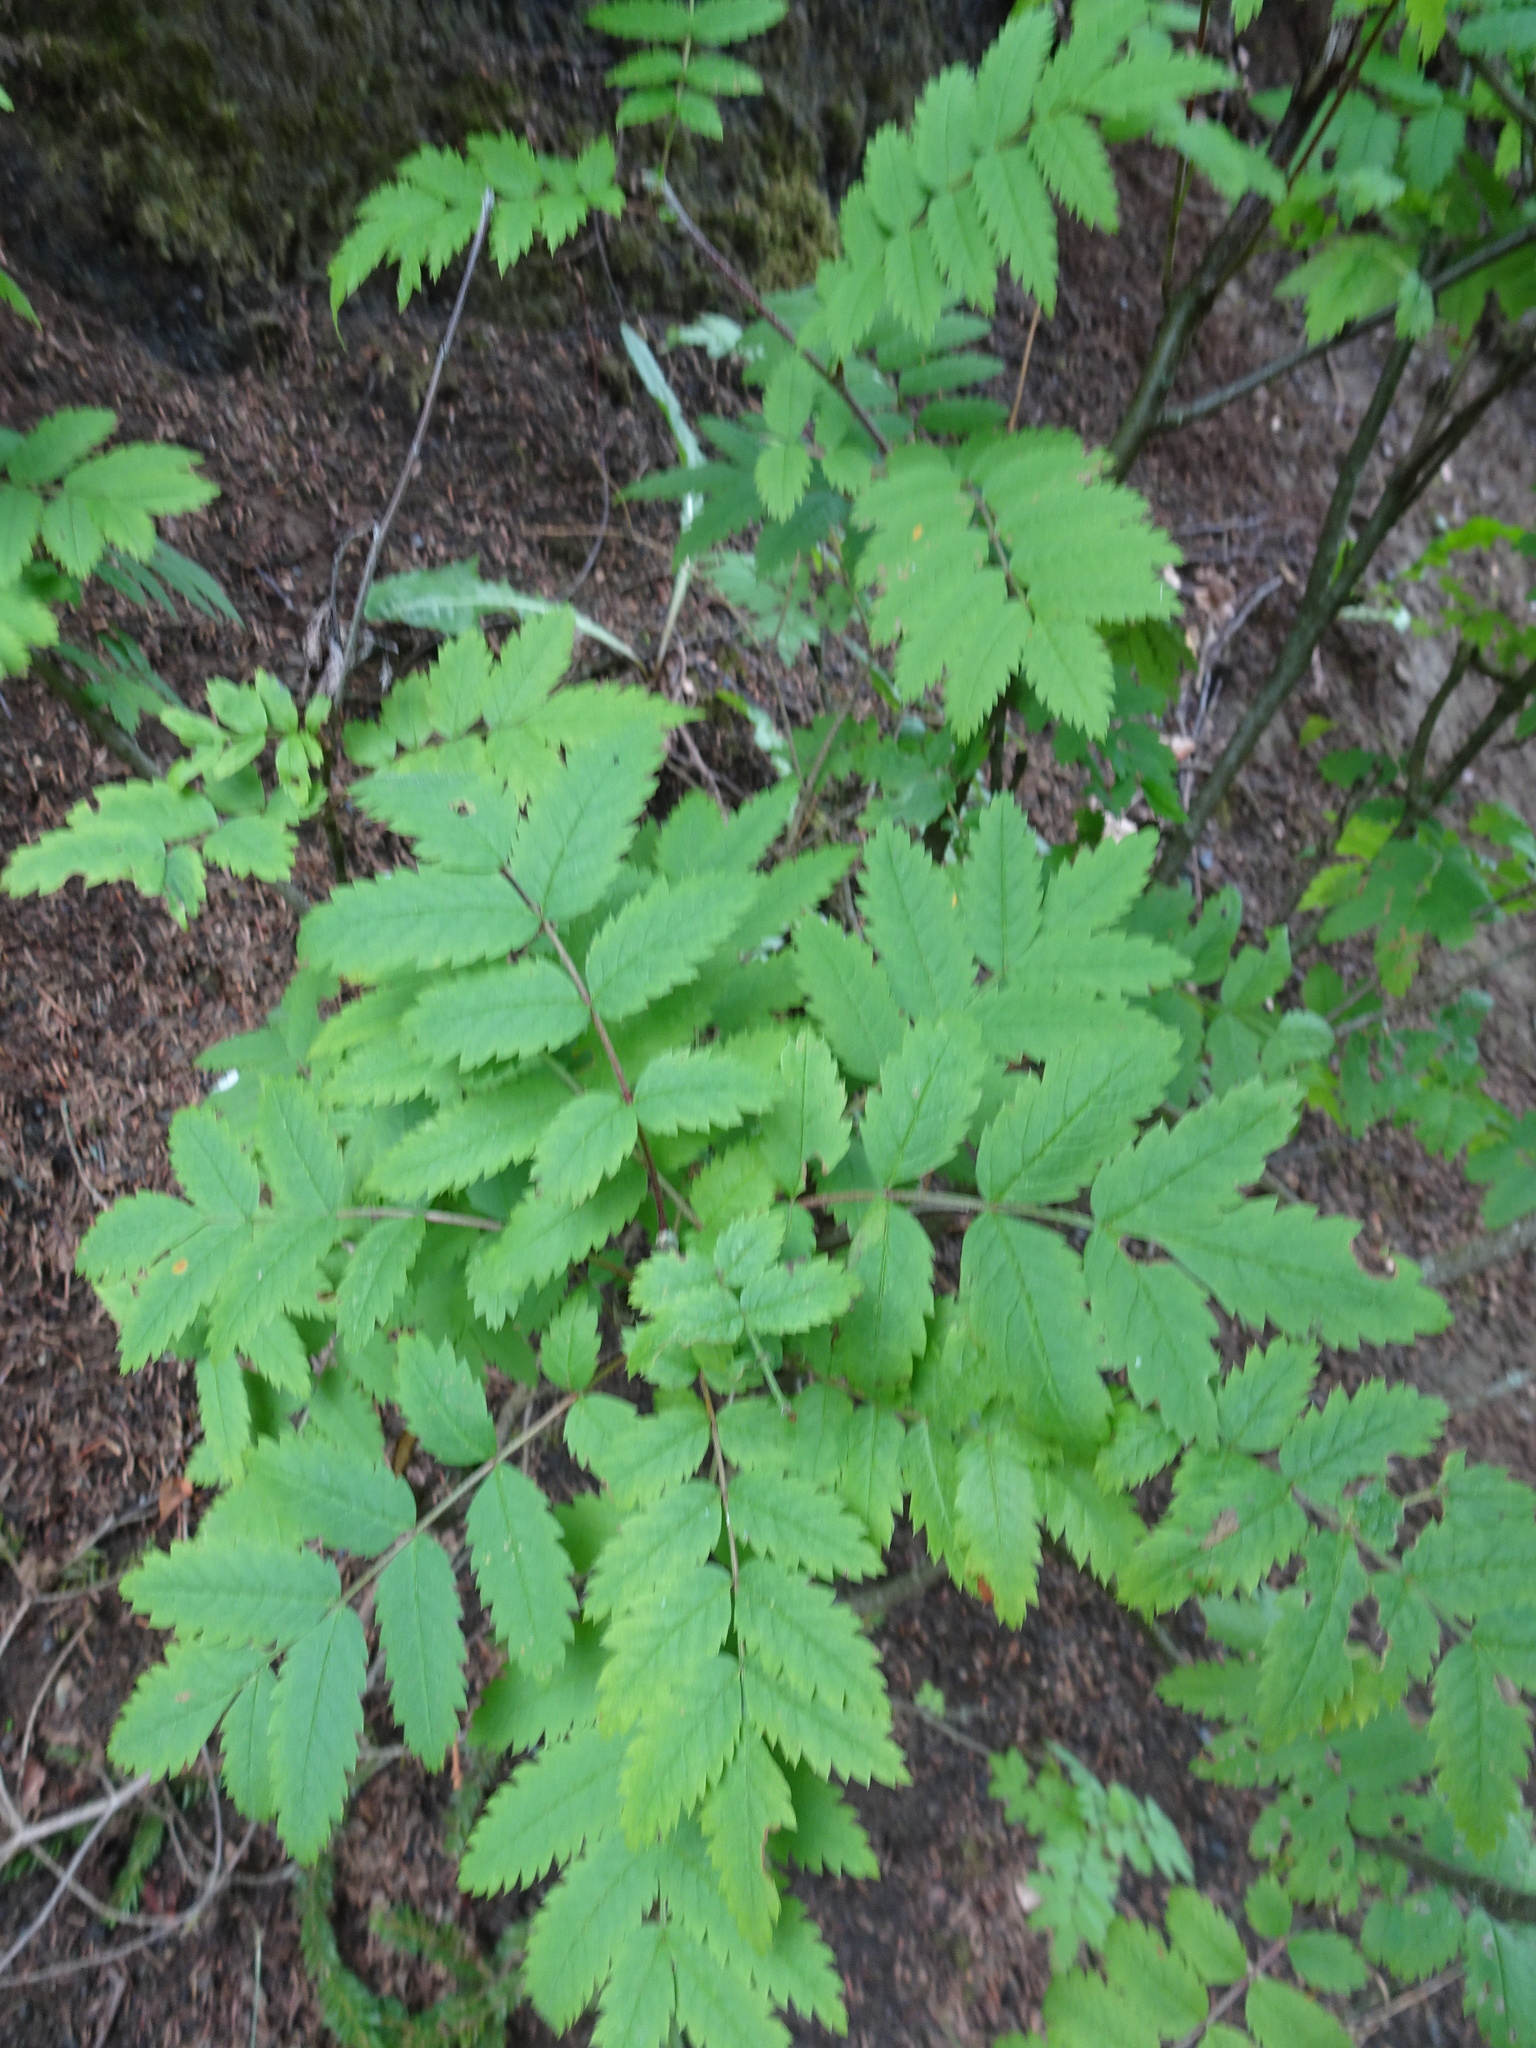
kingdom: Plantae
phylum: Tracheophyta
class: Magnoliopsida
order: Rosales
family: Rosaceae
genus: Sorbus
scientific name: Sorbus aucuparia
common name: Rowan
